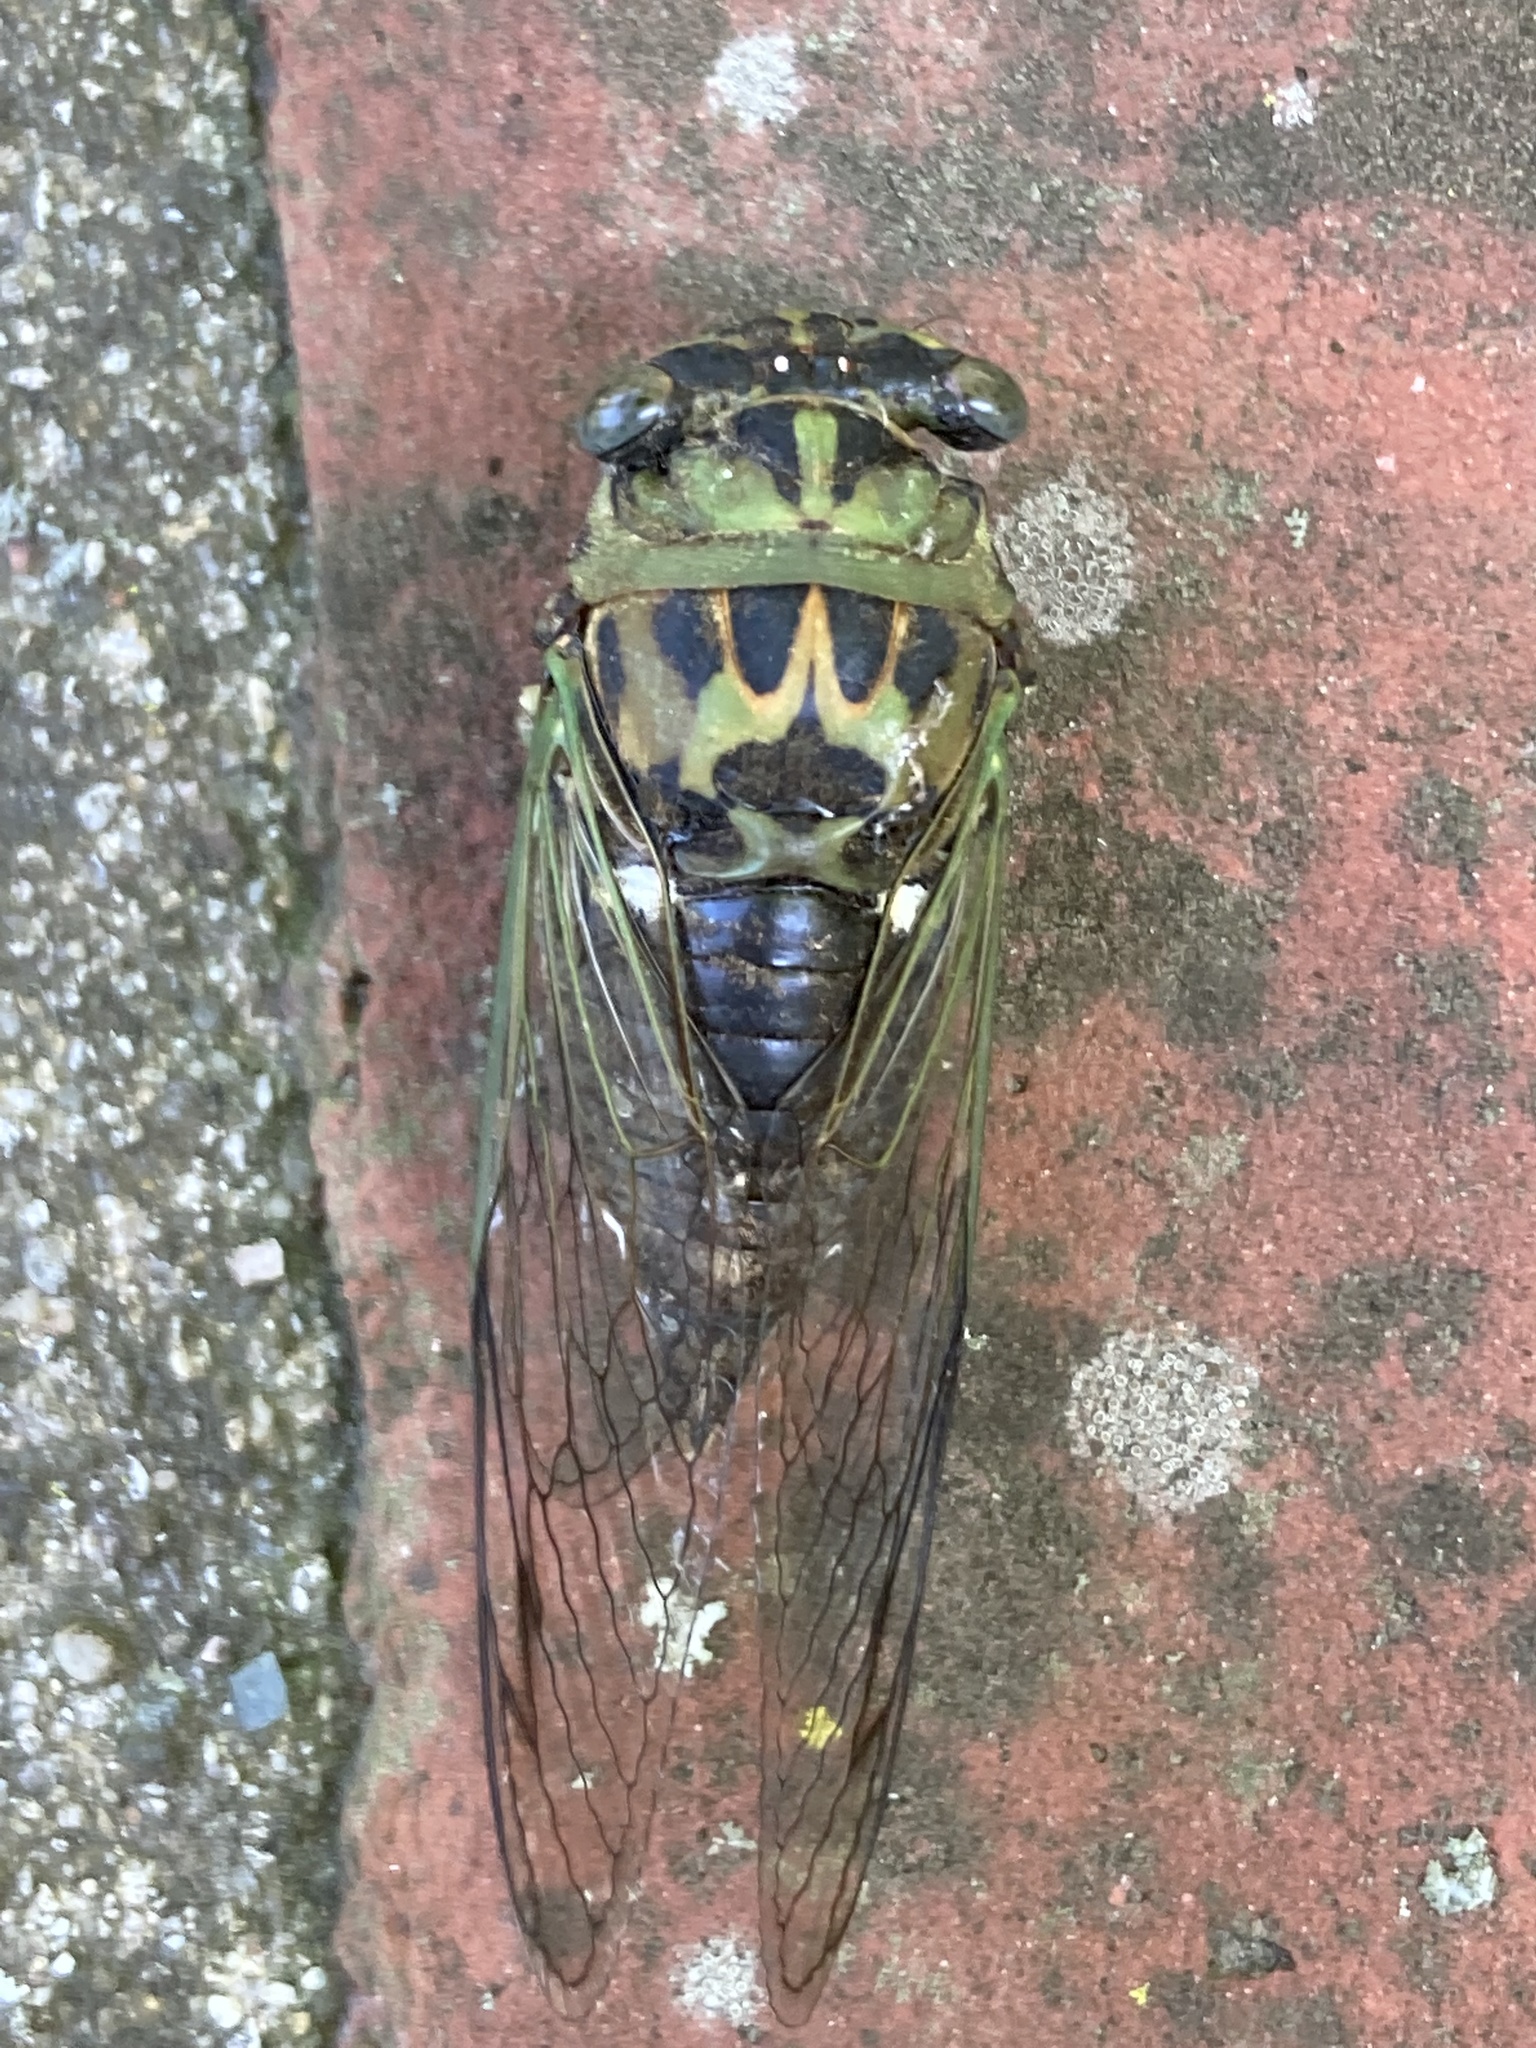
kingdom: Animalia
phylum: Arthropoda
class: Insecta
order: Hemiptera
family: Cicadidae
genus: Neotibicen
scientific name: Neotibicen pruinosus
